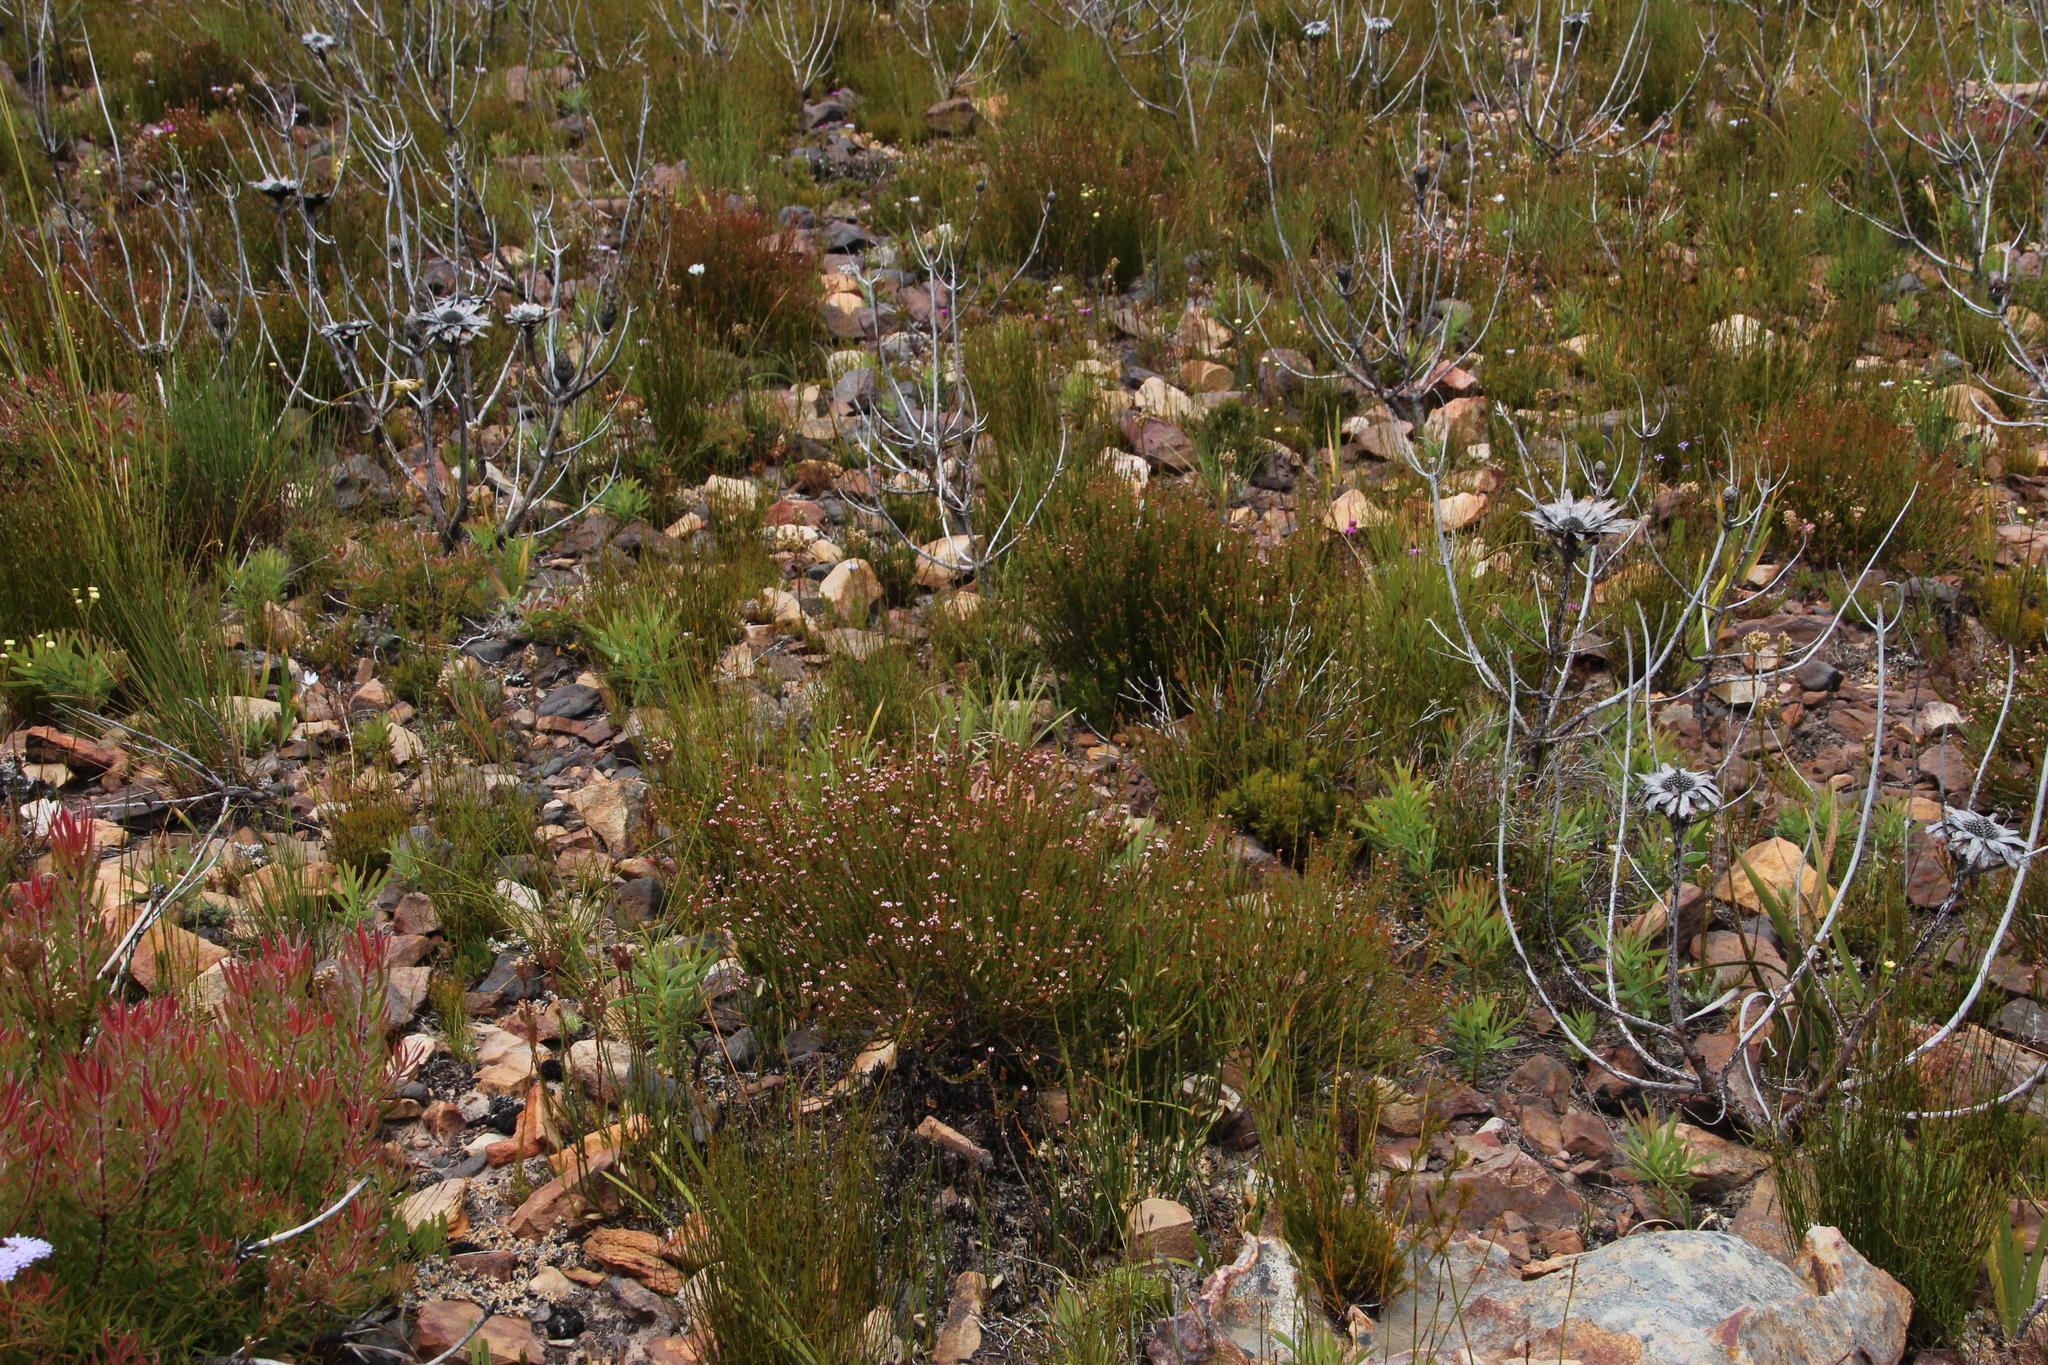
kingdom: Plantae
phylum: Tracheophyta
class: Magnoliopsida
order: Ericales
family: Ericaceae
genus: Erica
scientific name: Erica articularis
